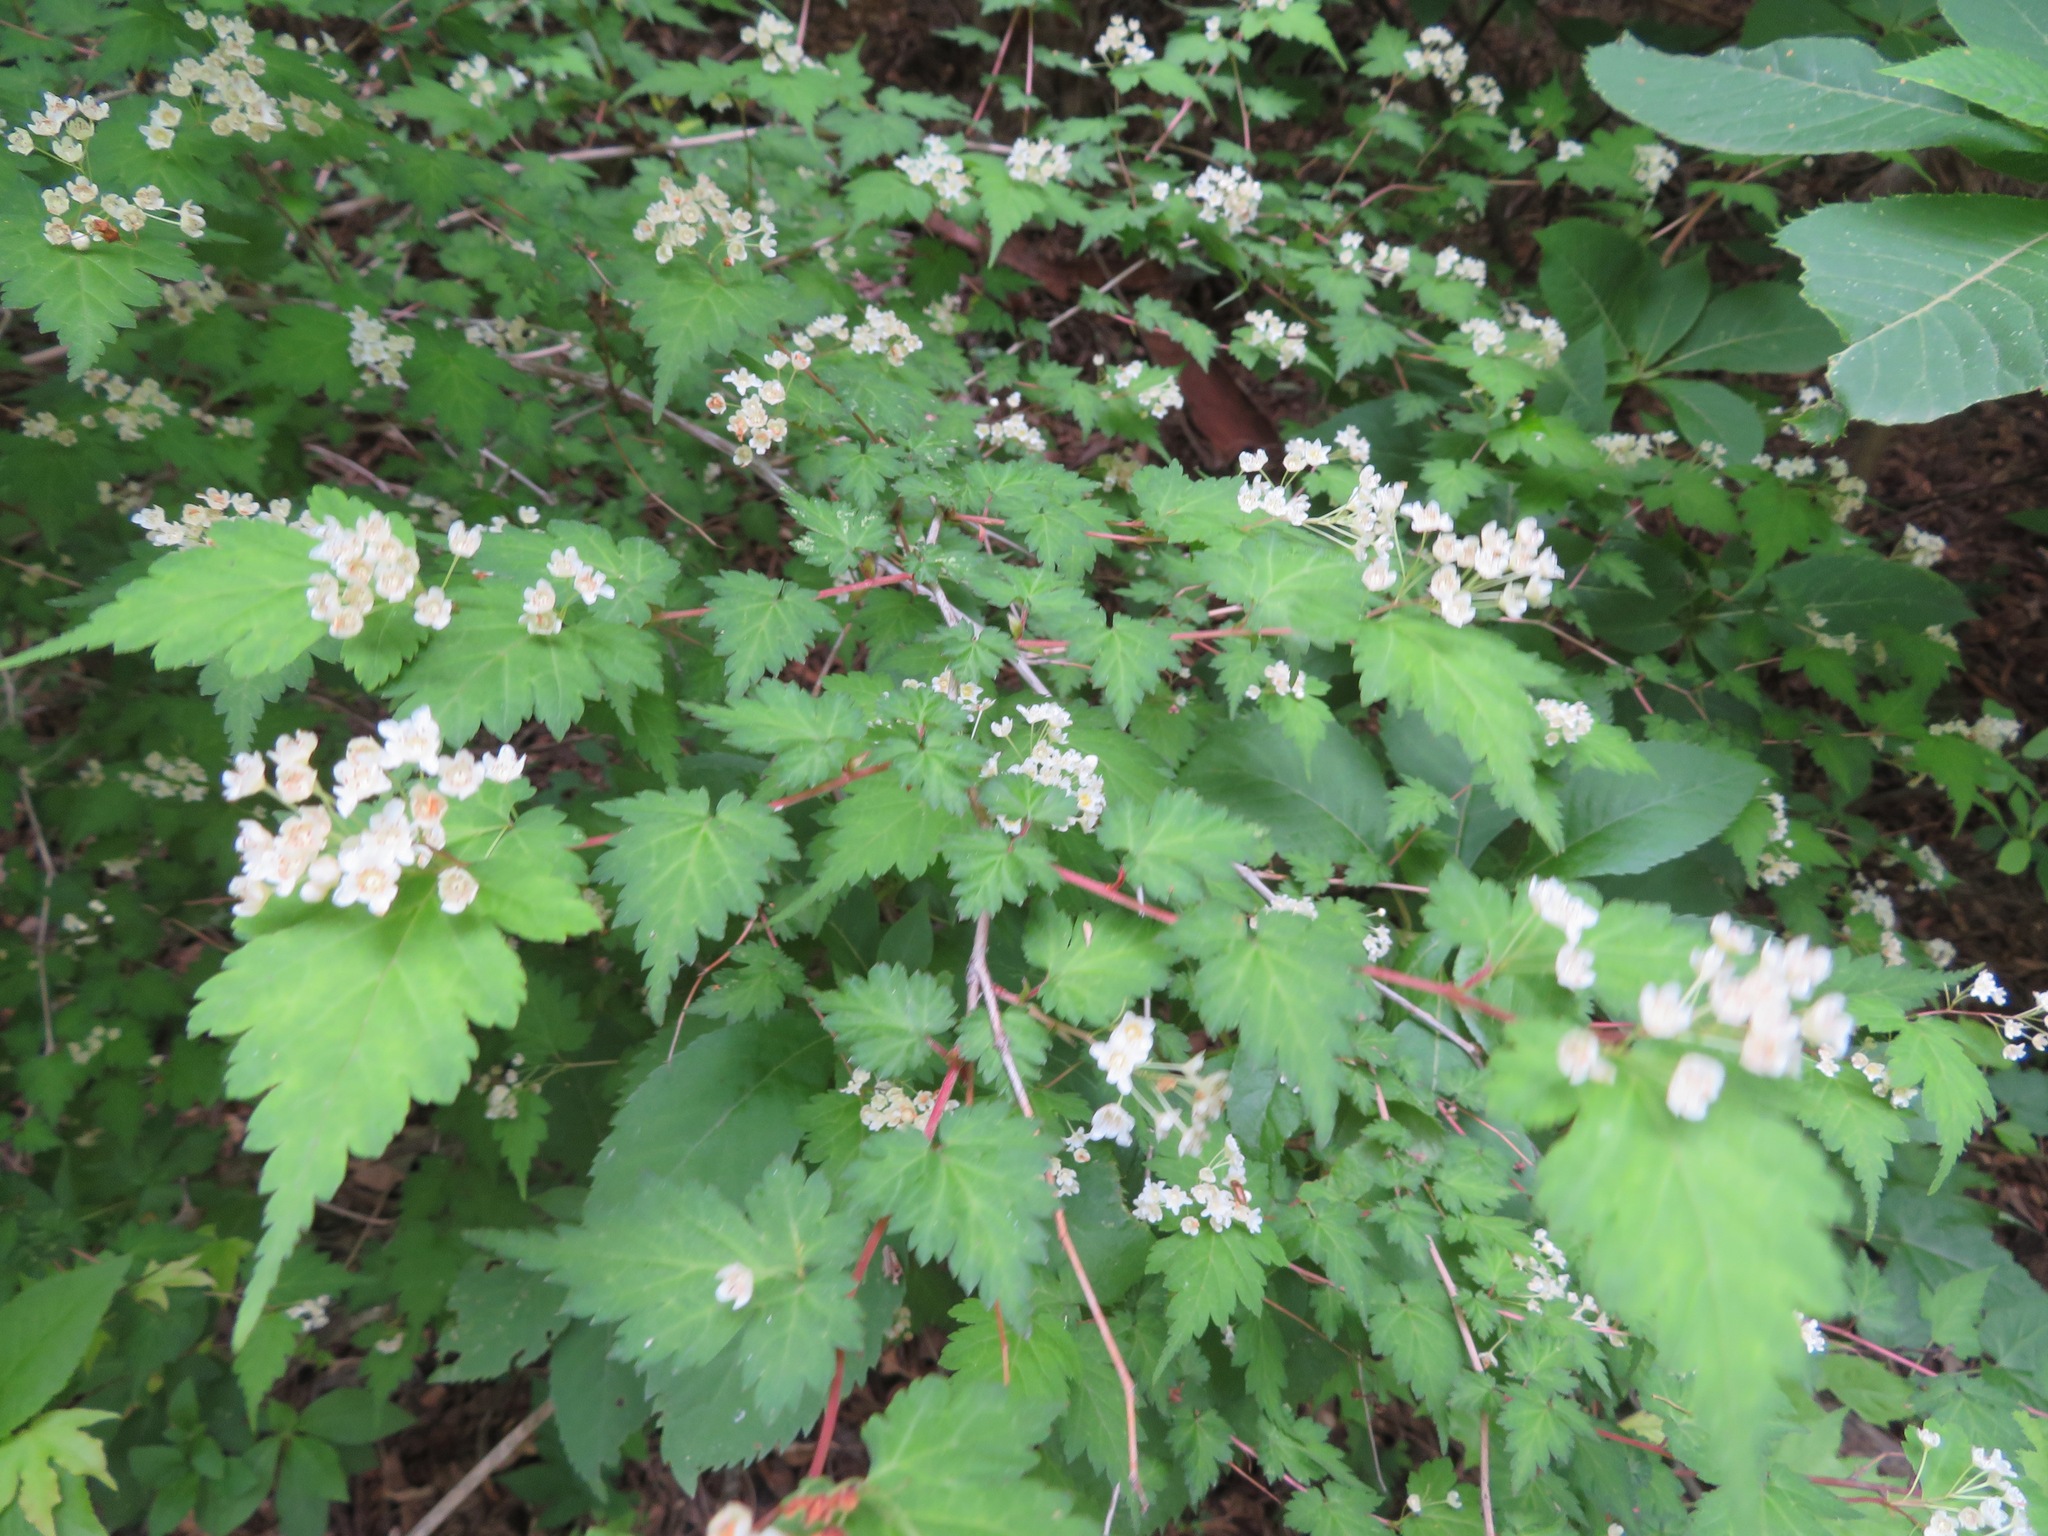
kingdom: Plantae
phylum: Tracheophyta
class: Magnoliopsida
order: Rosales
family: Rosaceae
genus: Neillia
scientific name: Neillia incisa
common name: Laceshrub
